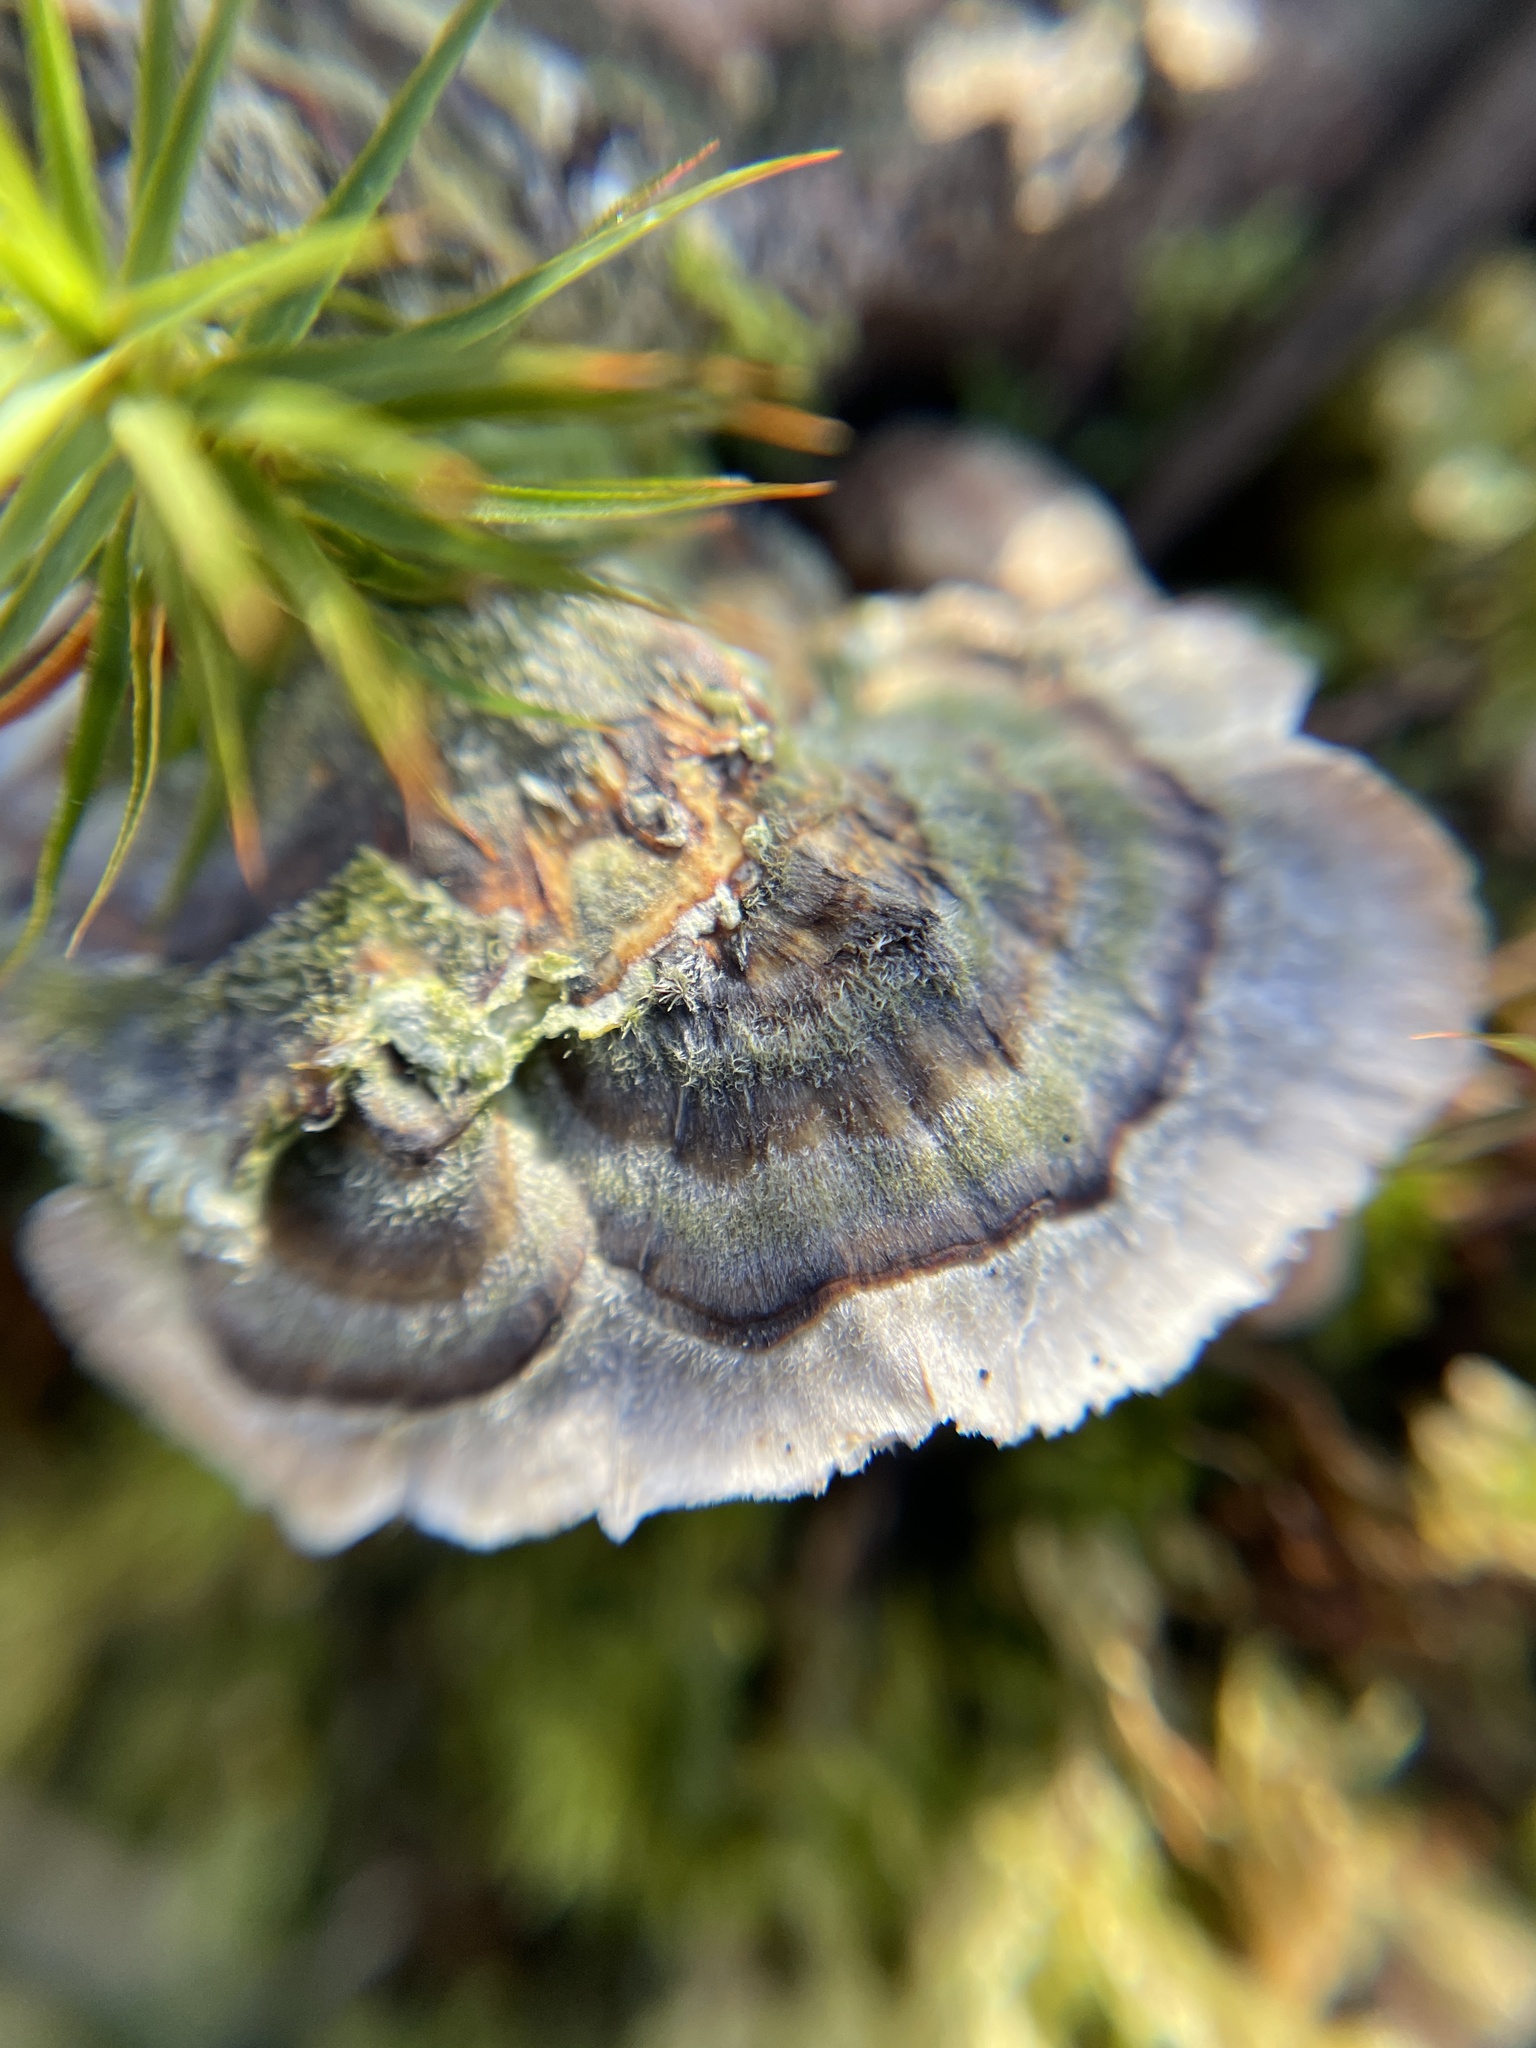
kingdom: Fungi
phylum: Basidiomycota
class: Agaricomycetes
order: Polyporales
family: Polyporaceae
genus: Trametes
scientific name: Trametes versicolor
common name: Turkeytail
